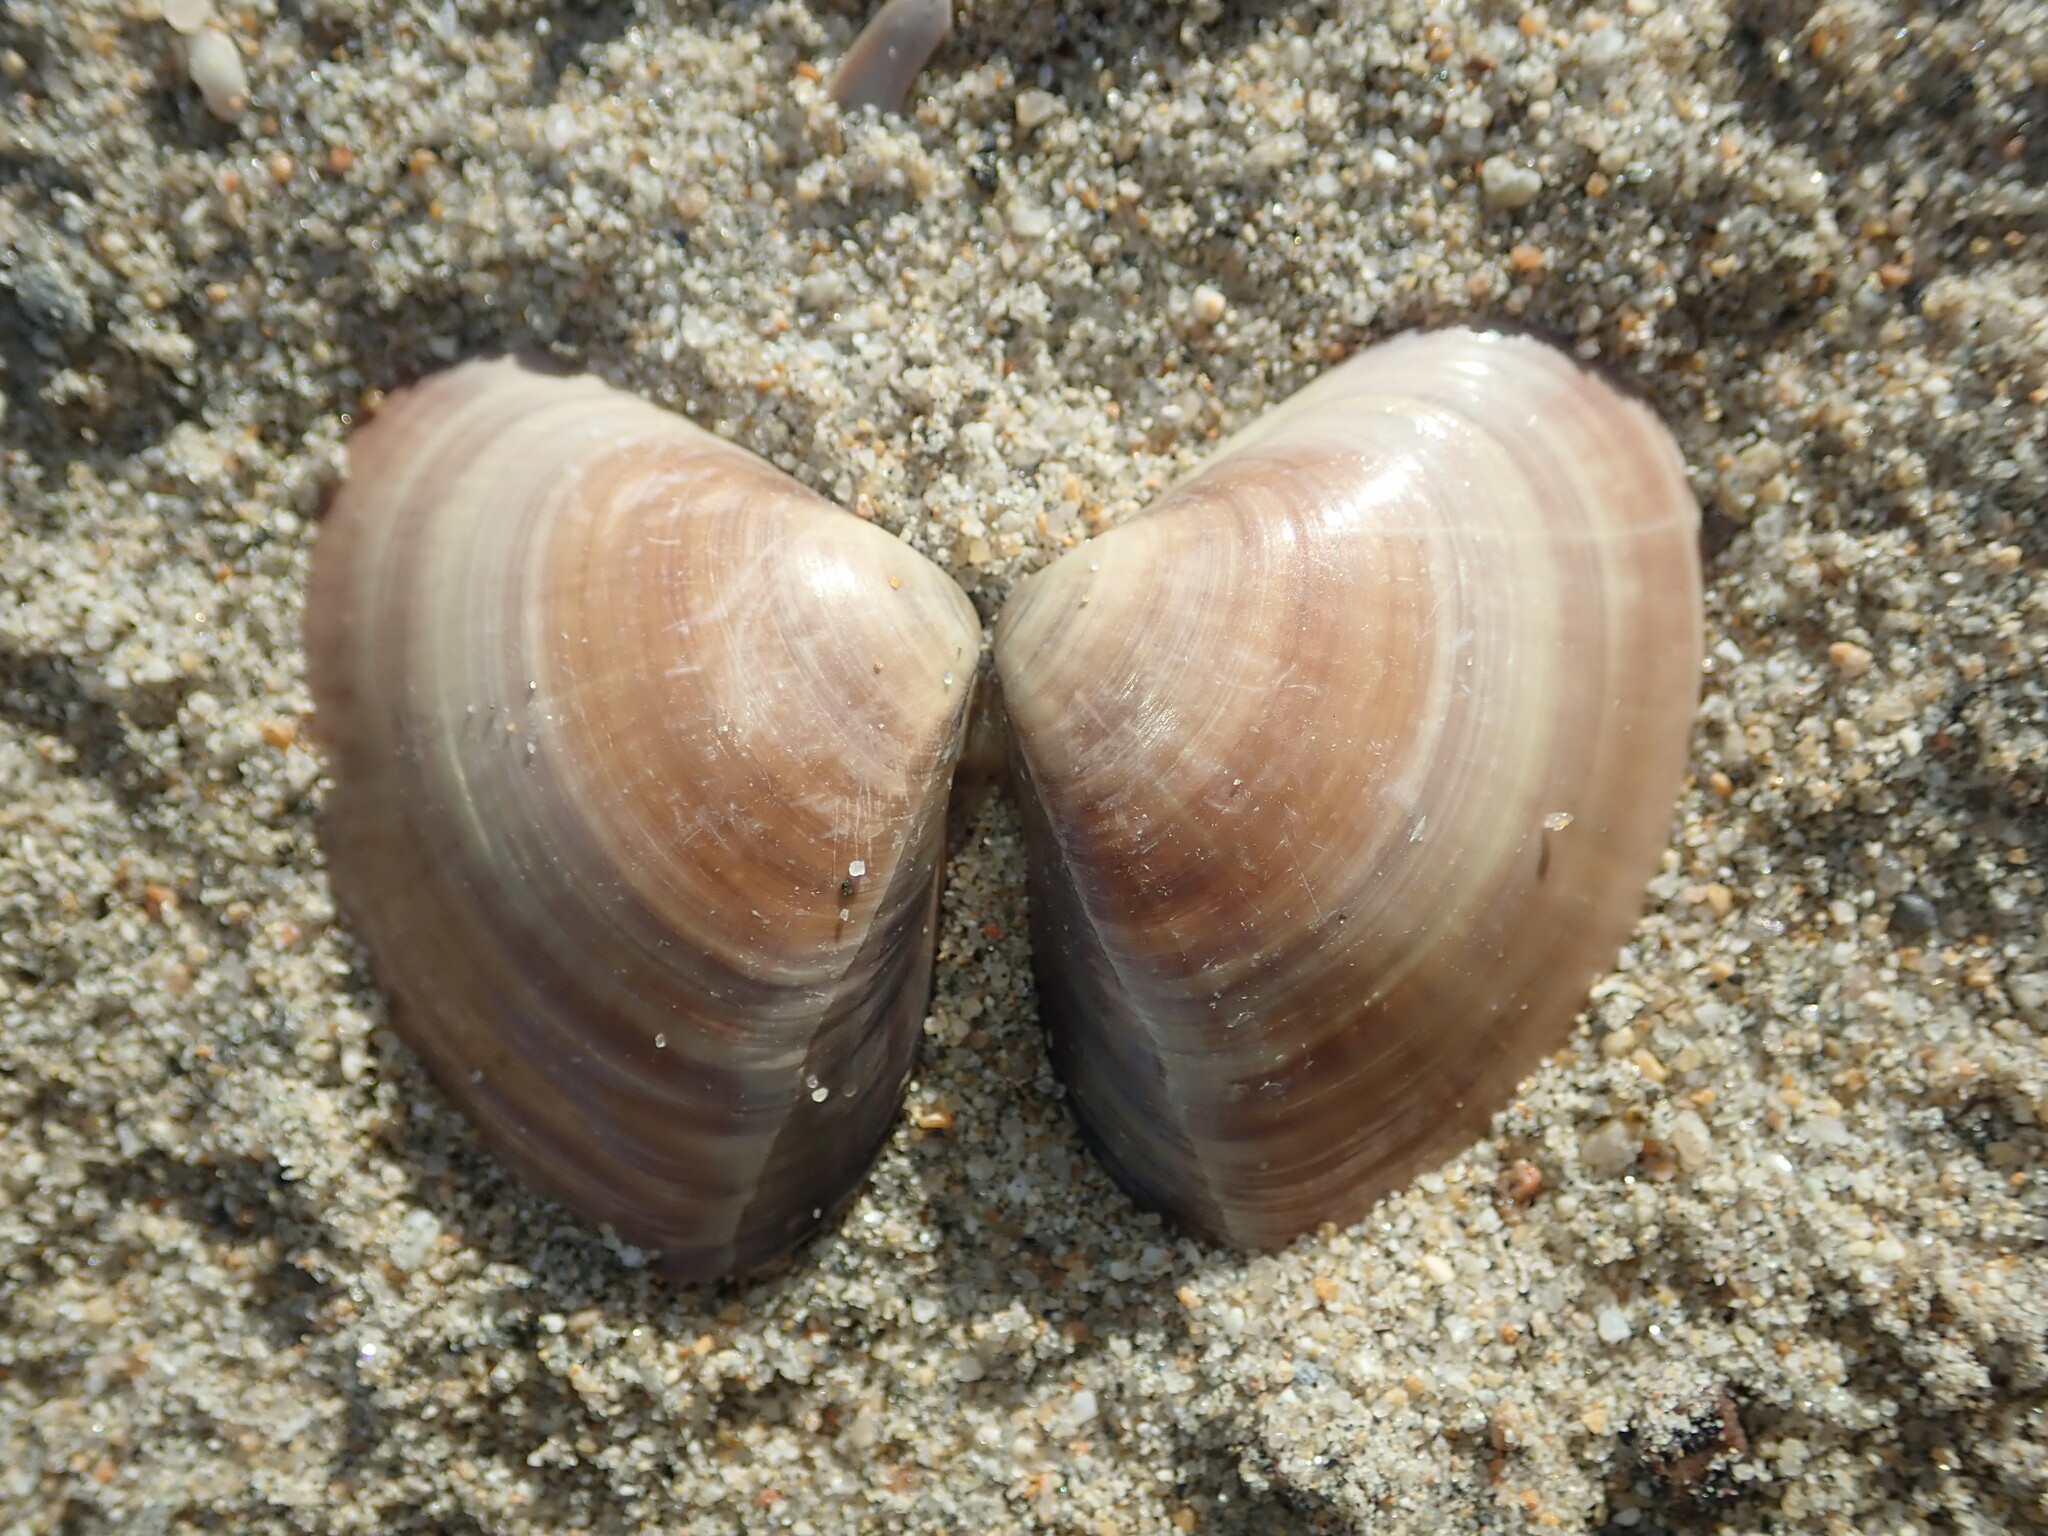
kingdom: Animalia
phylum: Mollusca
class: Bivalvia
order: Venerida
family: Veneridae
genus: Tivela
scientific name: Tivela stultorum
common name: Pismo clam
